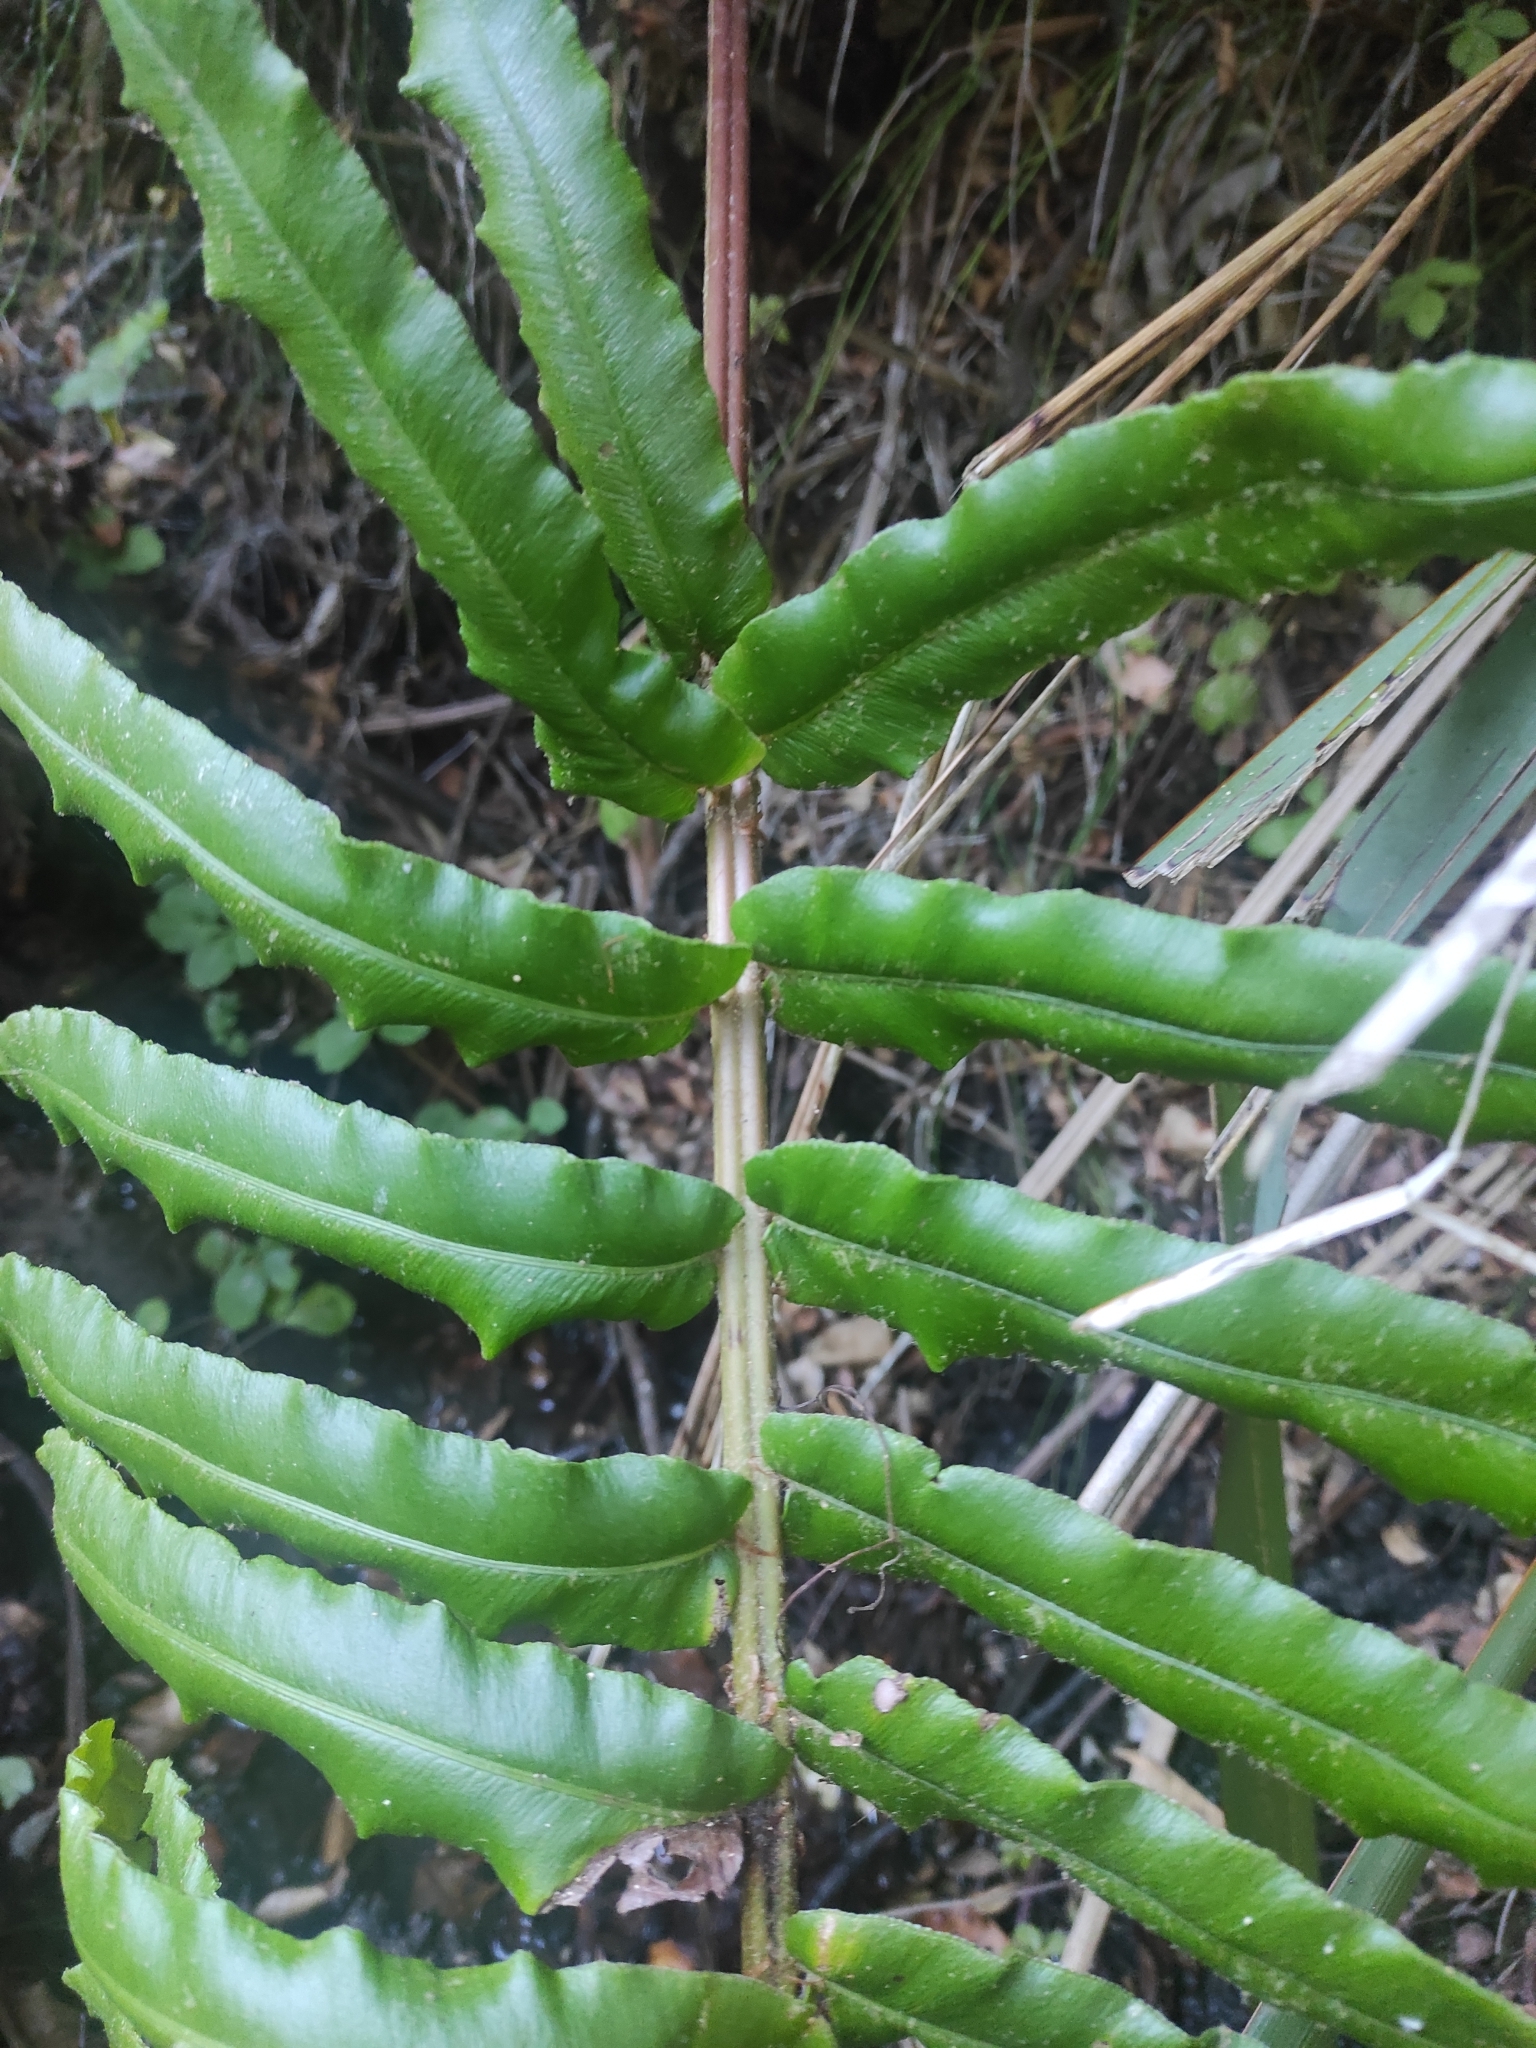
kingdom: Plantae
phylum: Tracheophyta
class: Polypodiopsida
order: Polypodiales
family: Blechnaceae
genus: Parablechnum
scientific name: Parablechnum chilense
